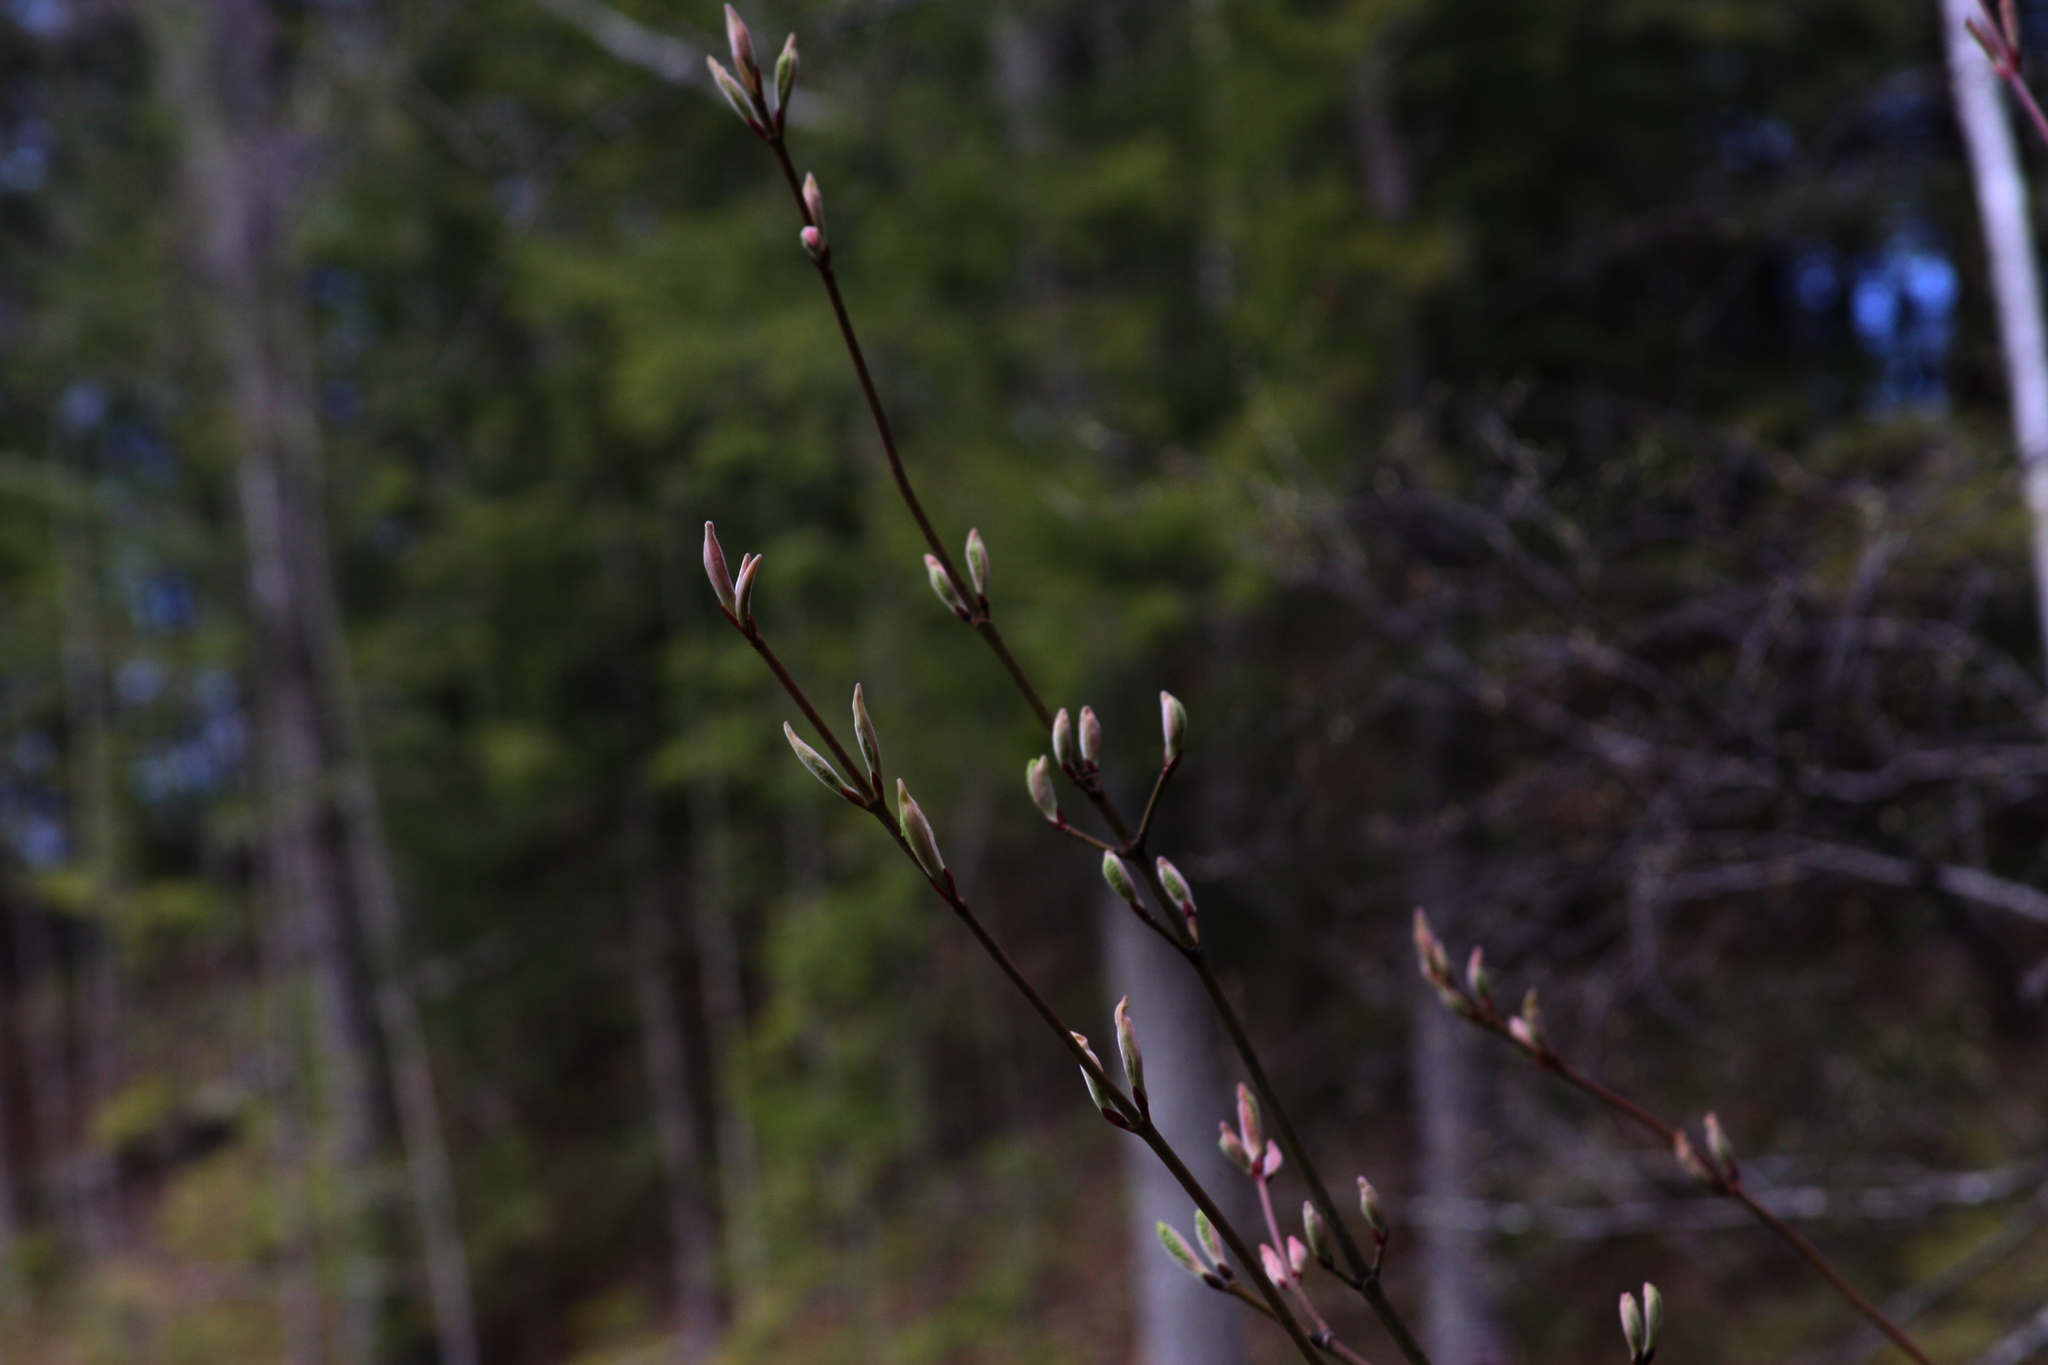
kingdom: Plantae
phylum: Tracheophyta
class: Magnoliopsida
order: Sapindales
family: Sapindaceae
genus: Acer
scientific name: Acer pensylvanicum
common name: Moosewood
